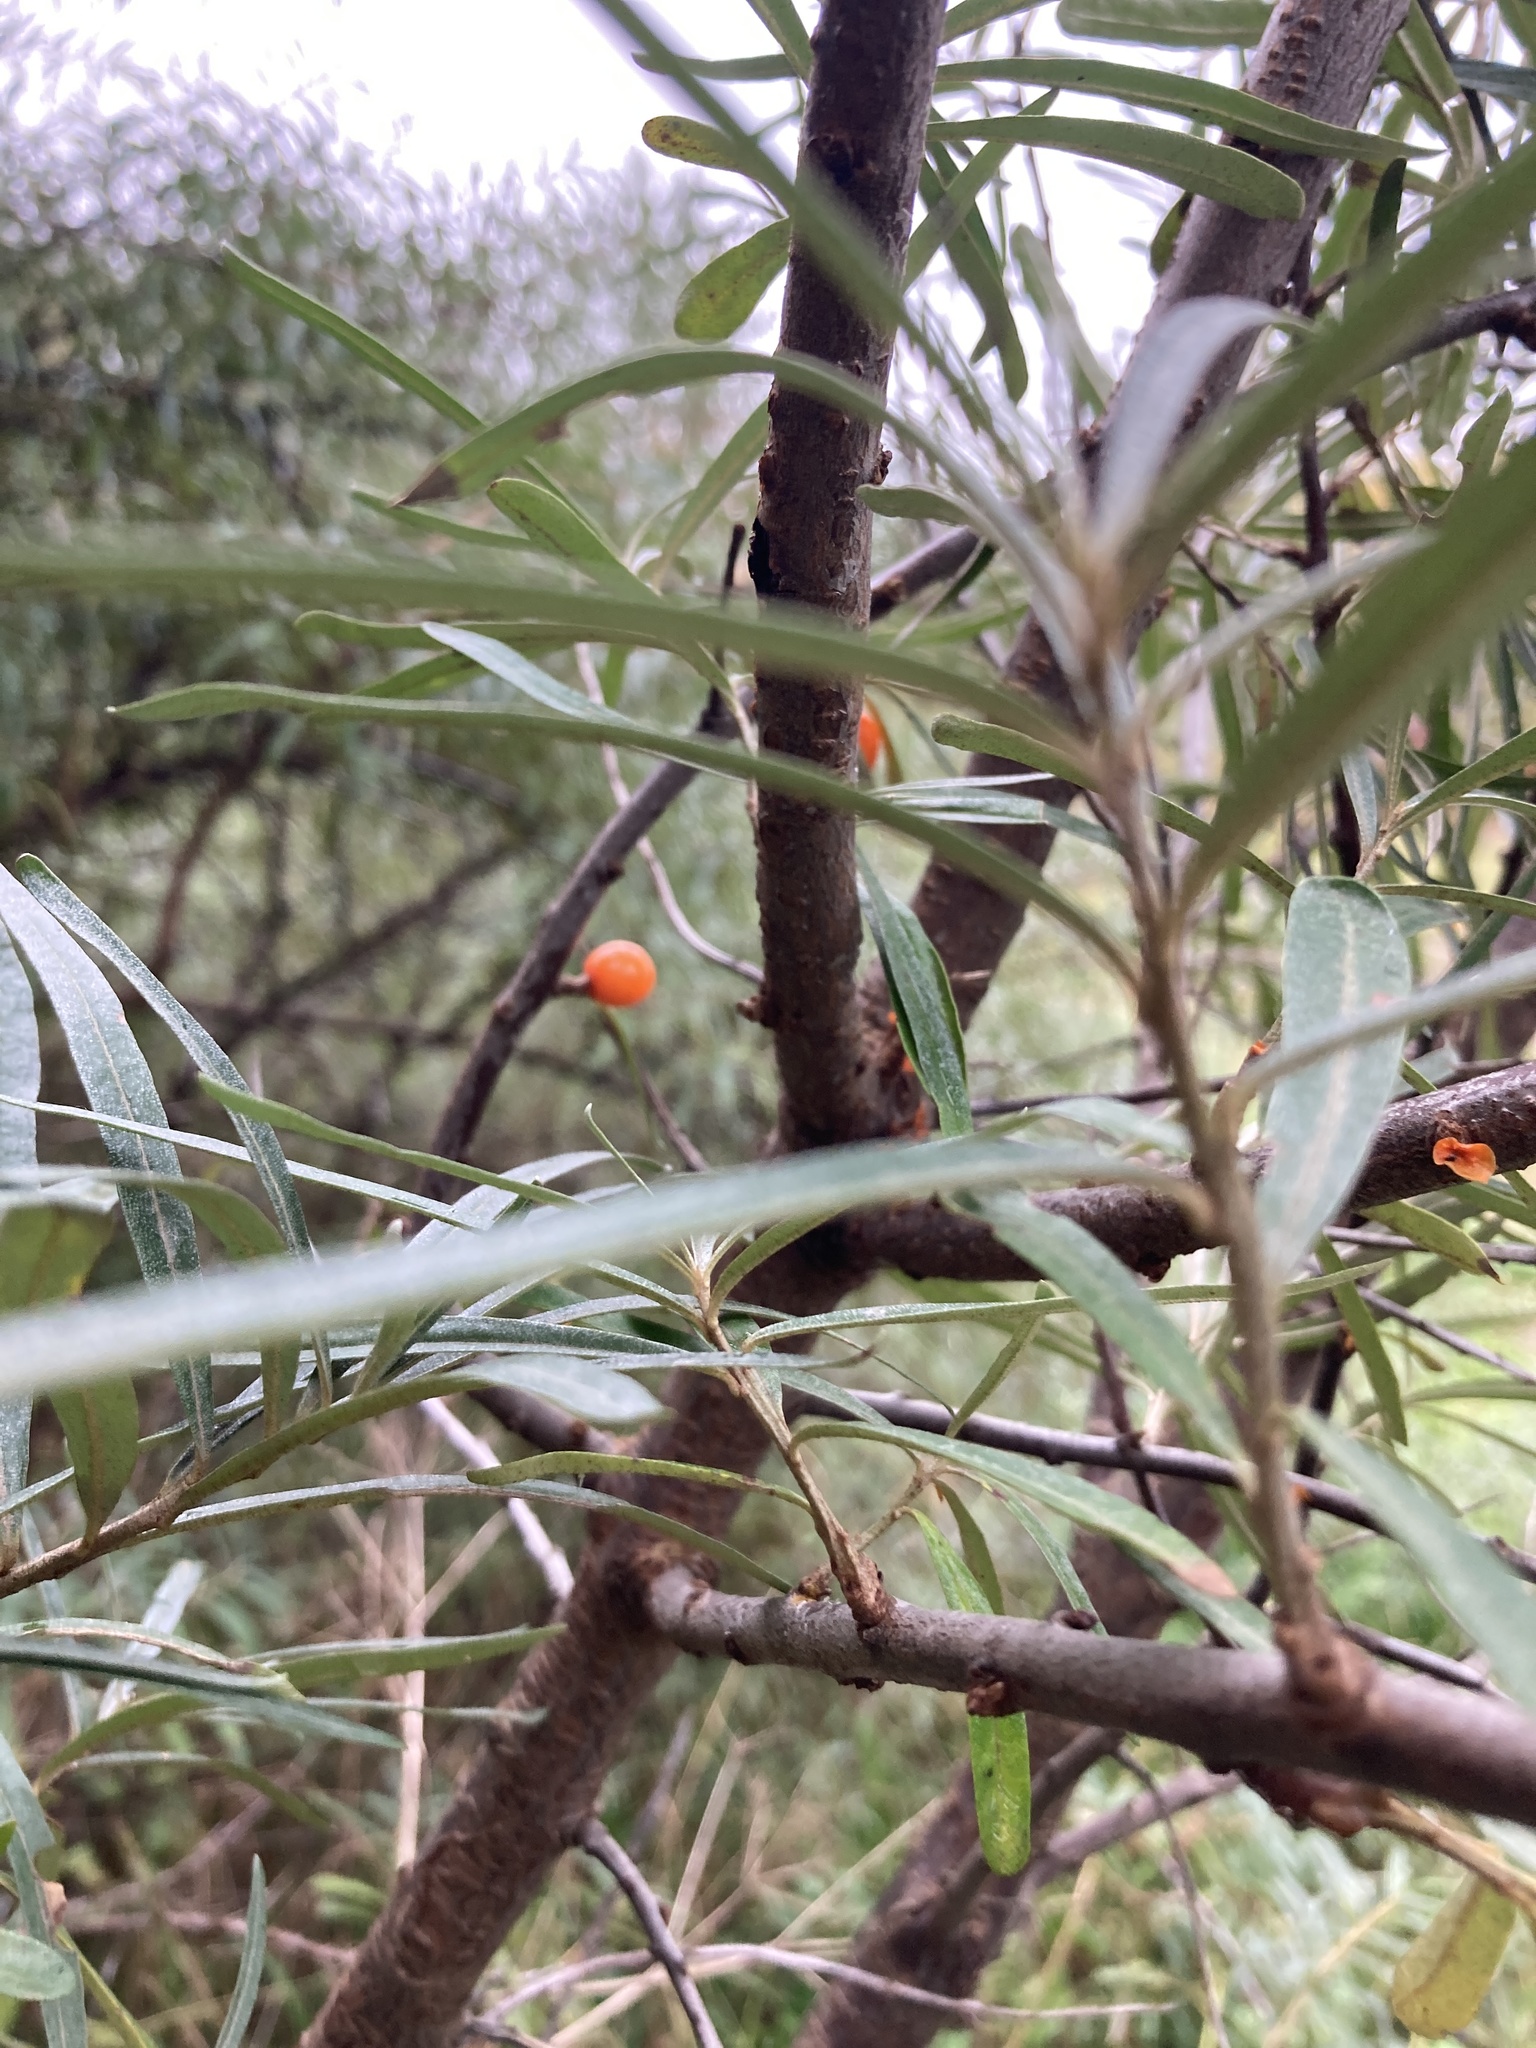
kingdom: Plantae
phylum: Tracheophyta
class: Magnoliopsida
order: Rosales
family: Elaeagnaceae
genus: Hippophae
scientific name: Hippophae rhamnoides
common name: Sea-buckthorn
